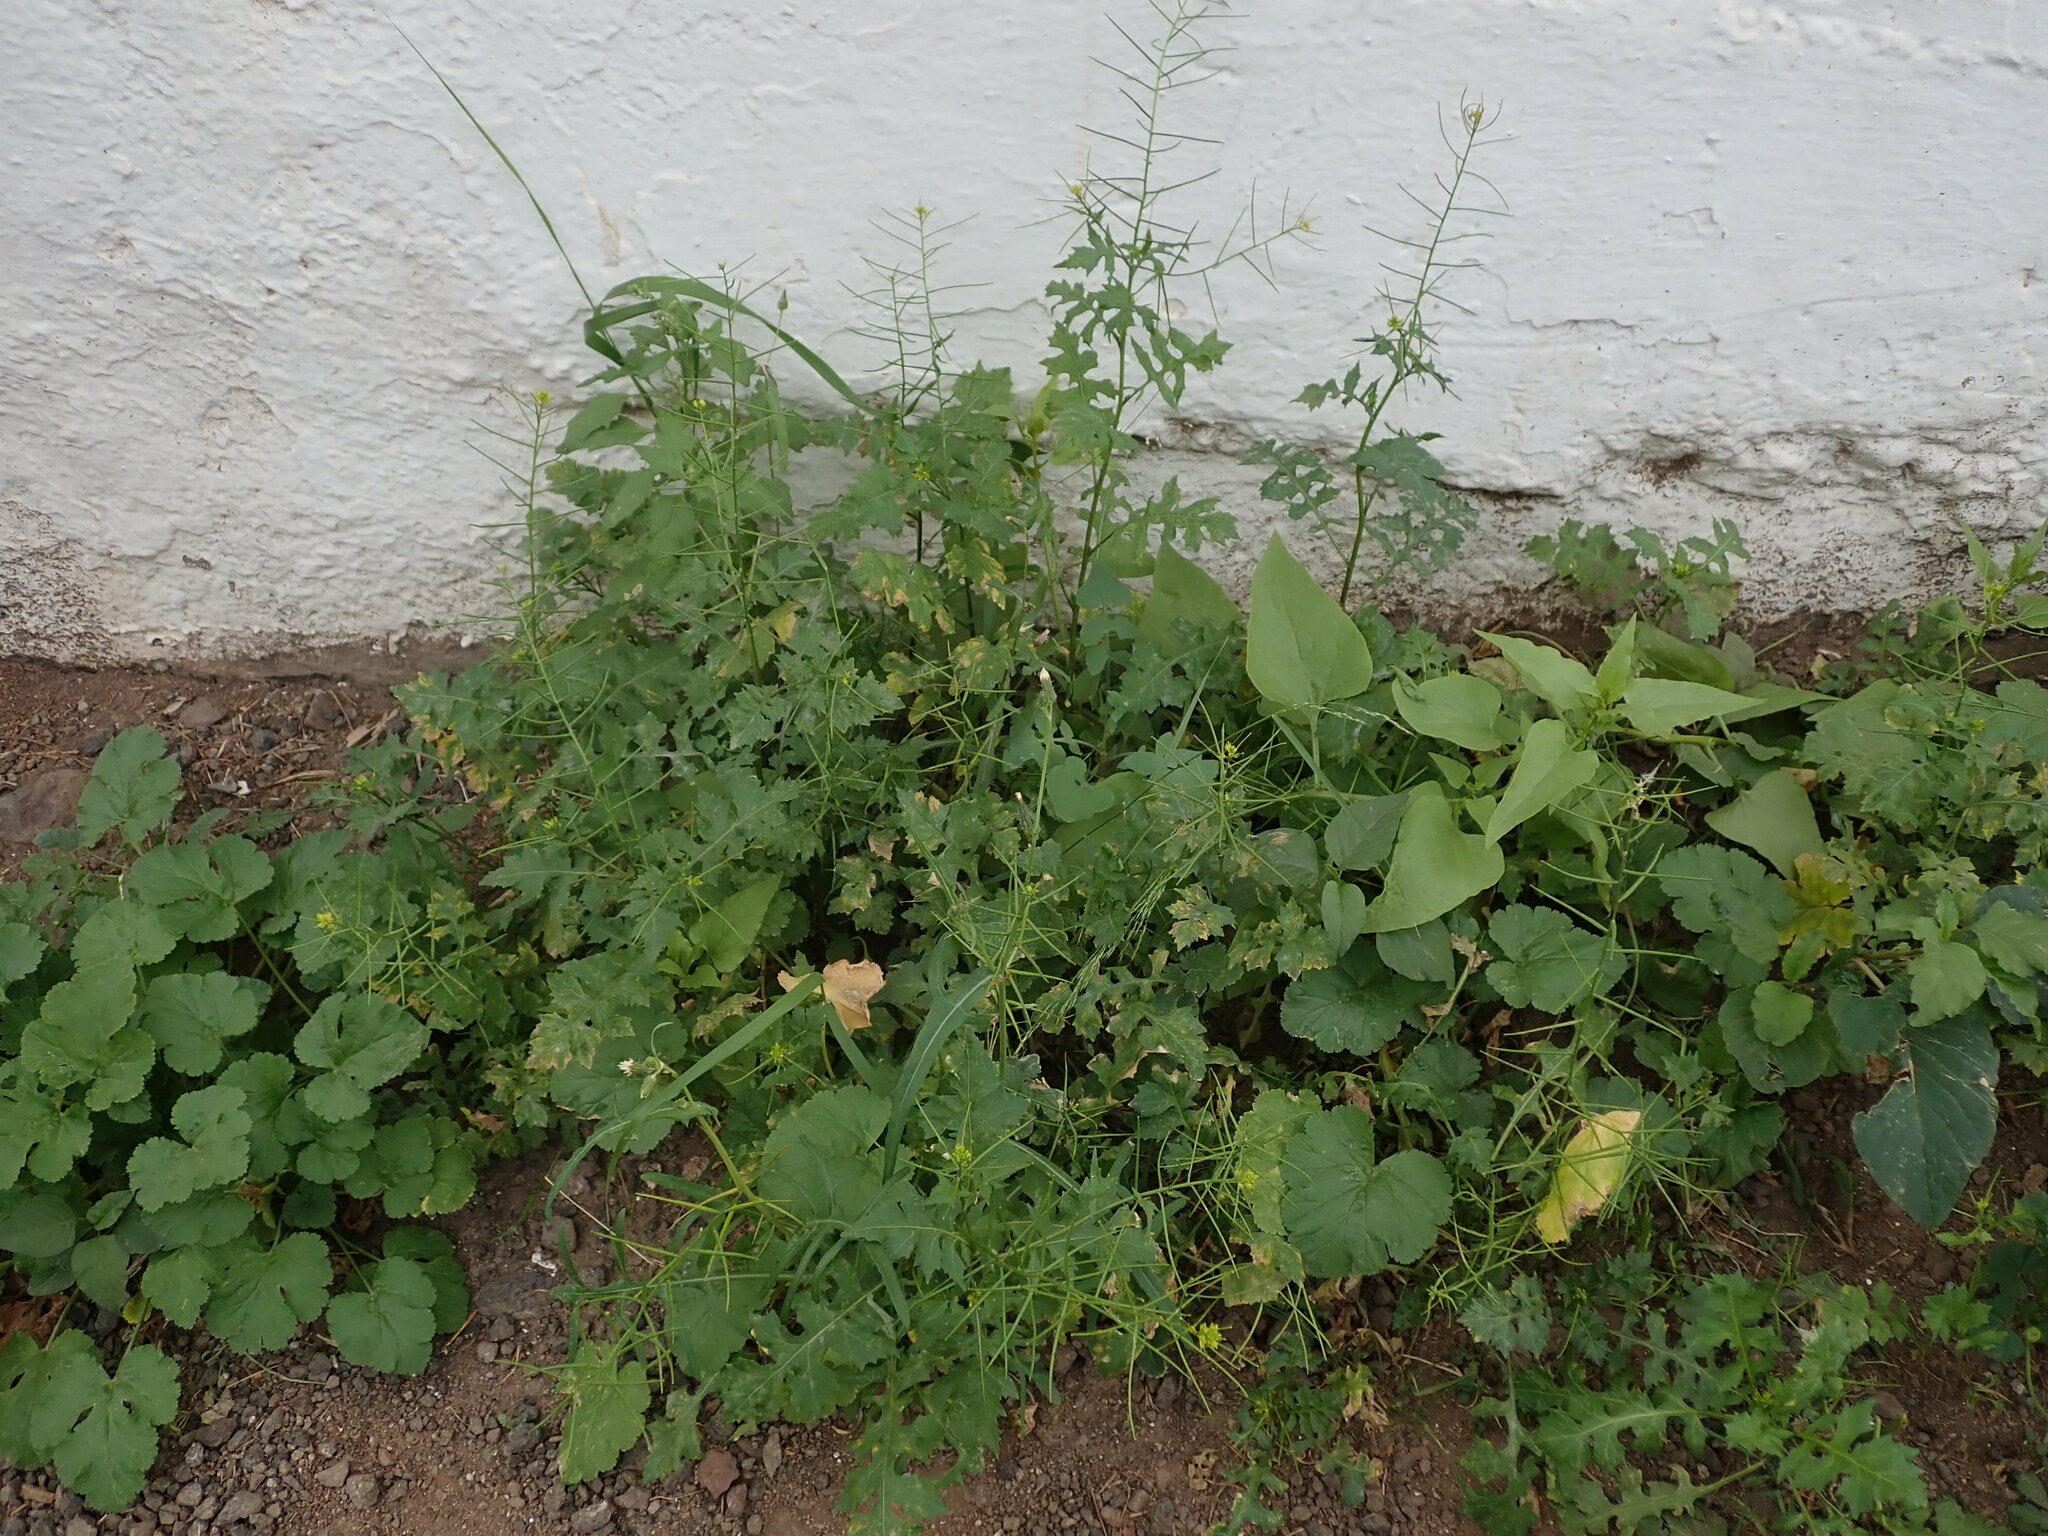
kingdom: Plantae
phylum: Tracheophyta
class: Magnoliopsida
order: Brassicales
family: Brassicaceae
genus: Sisymbrium
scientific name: Sisymbrium erysimoides
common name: French rocket
